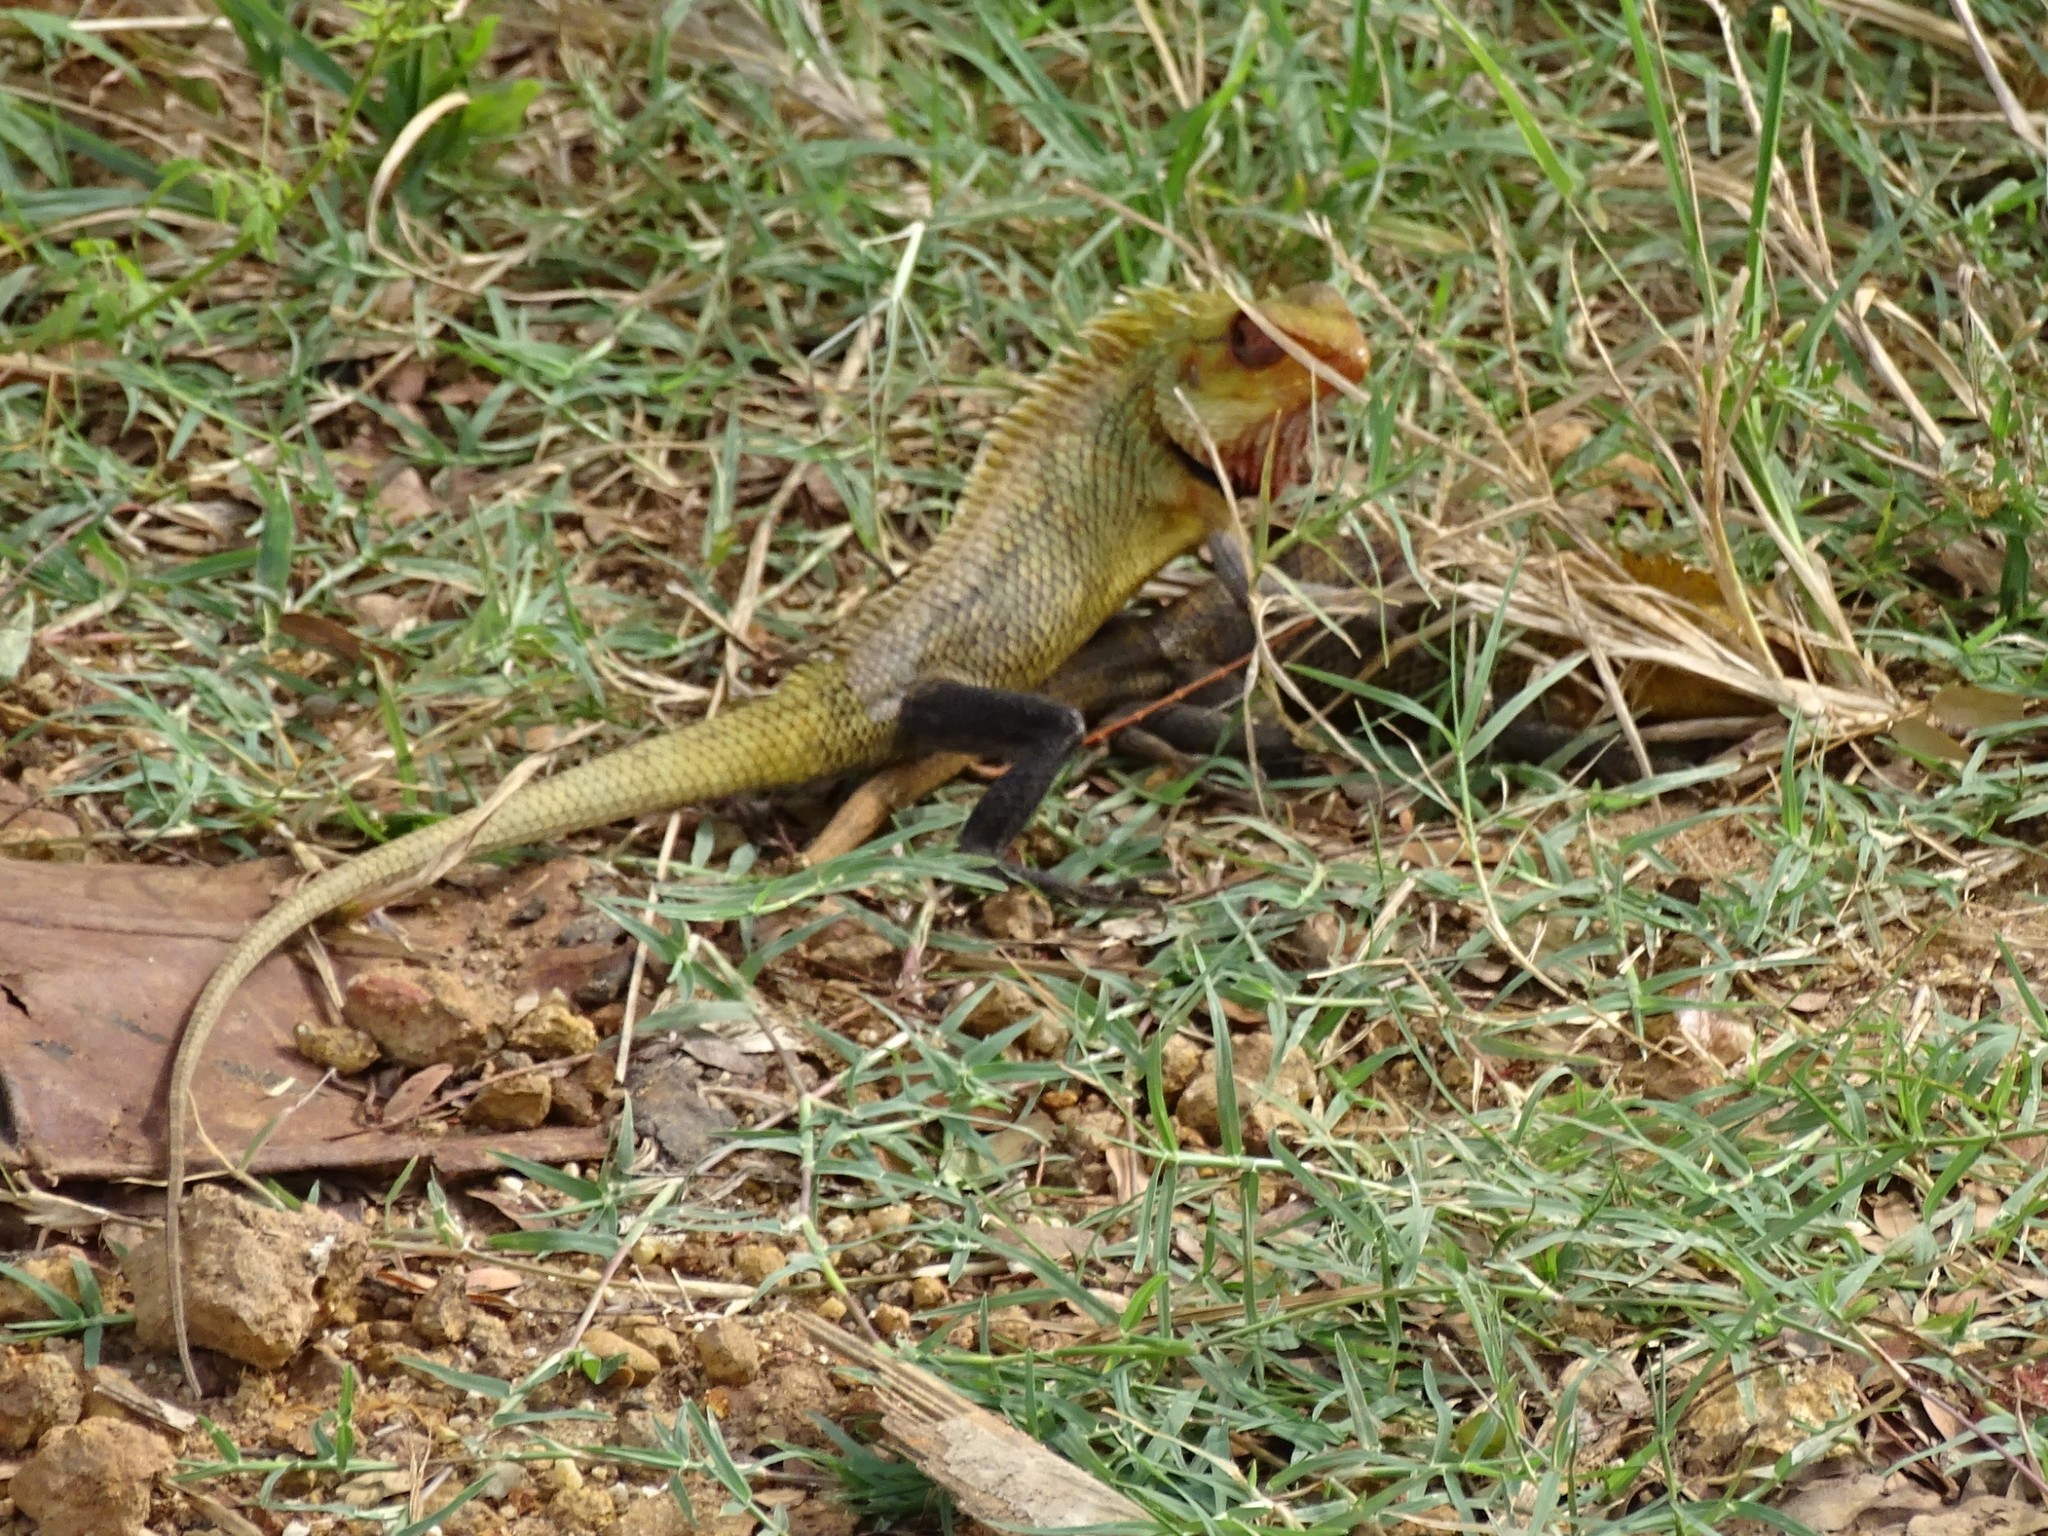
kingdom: Animalia
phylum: Chordata
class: Squamata
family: Agamidae
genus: Calotes
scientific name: Calotes versicolor
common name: Oriental garden lizard
